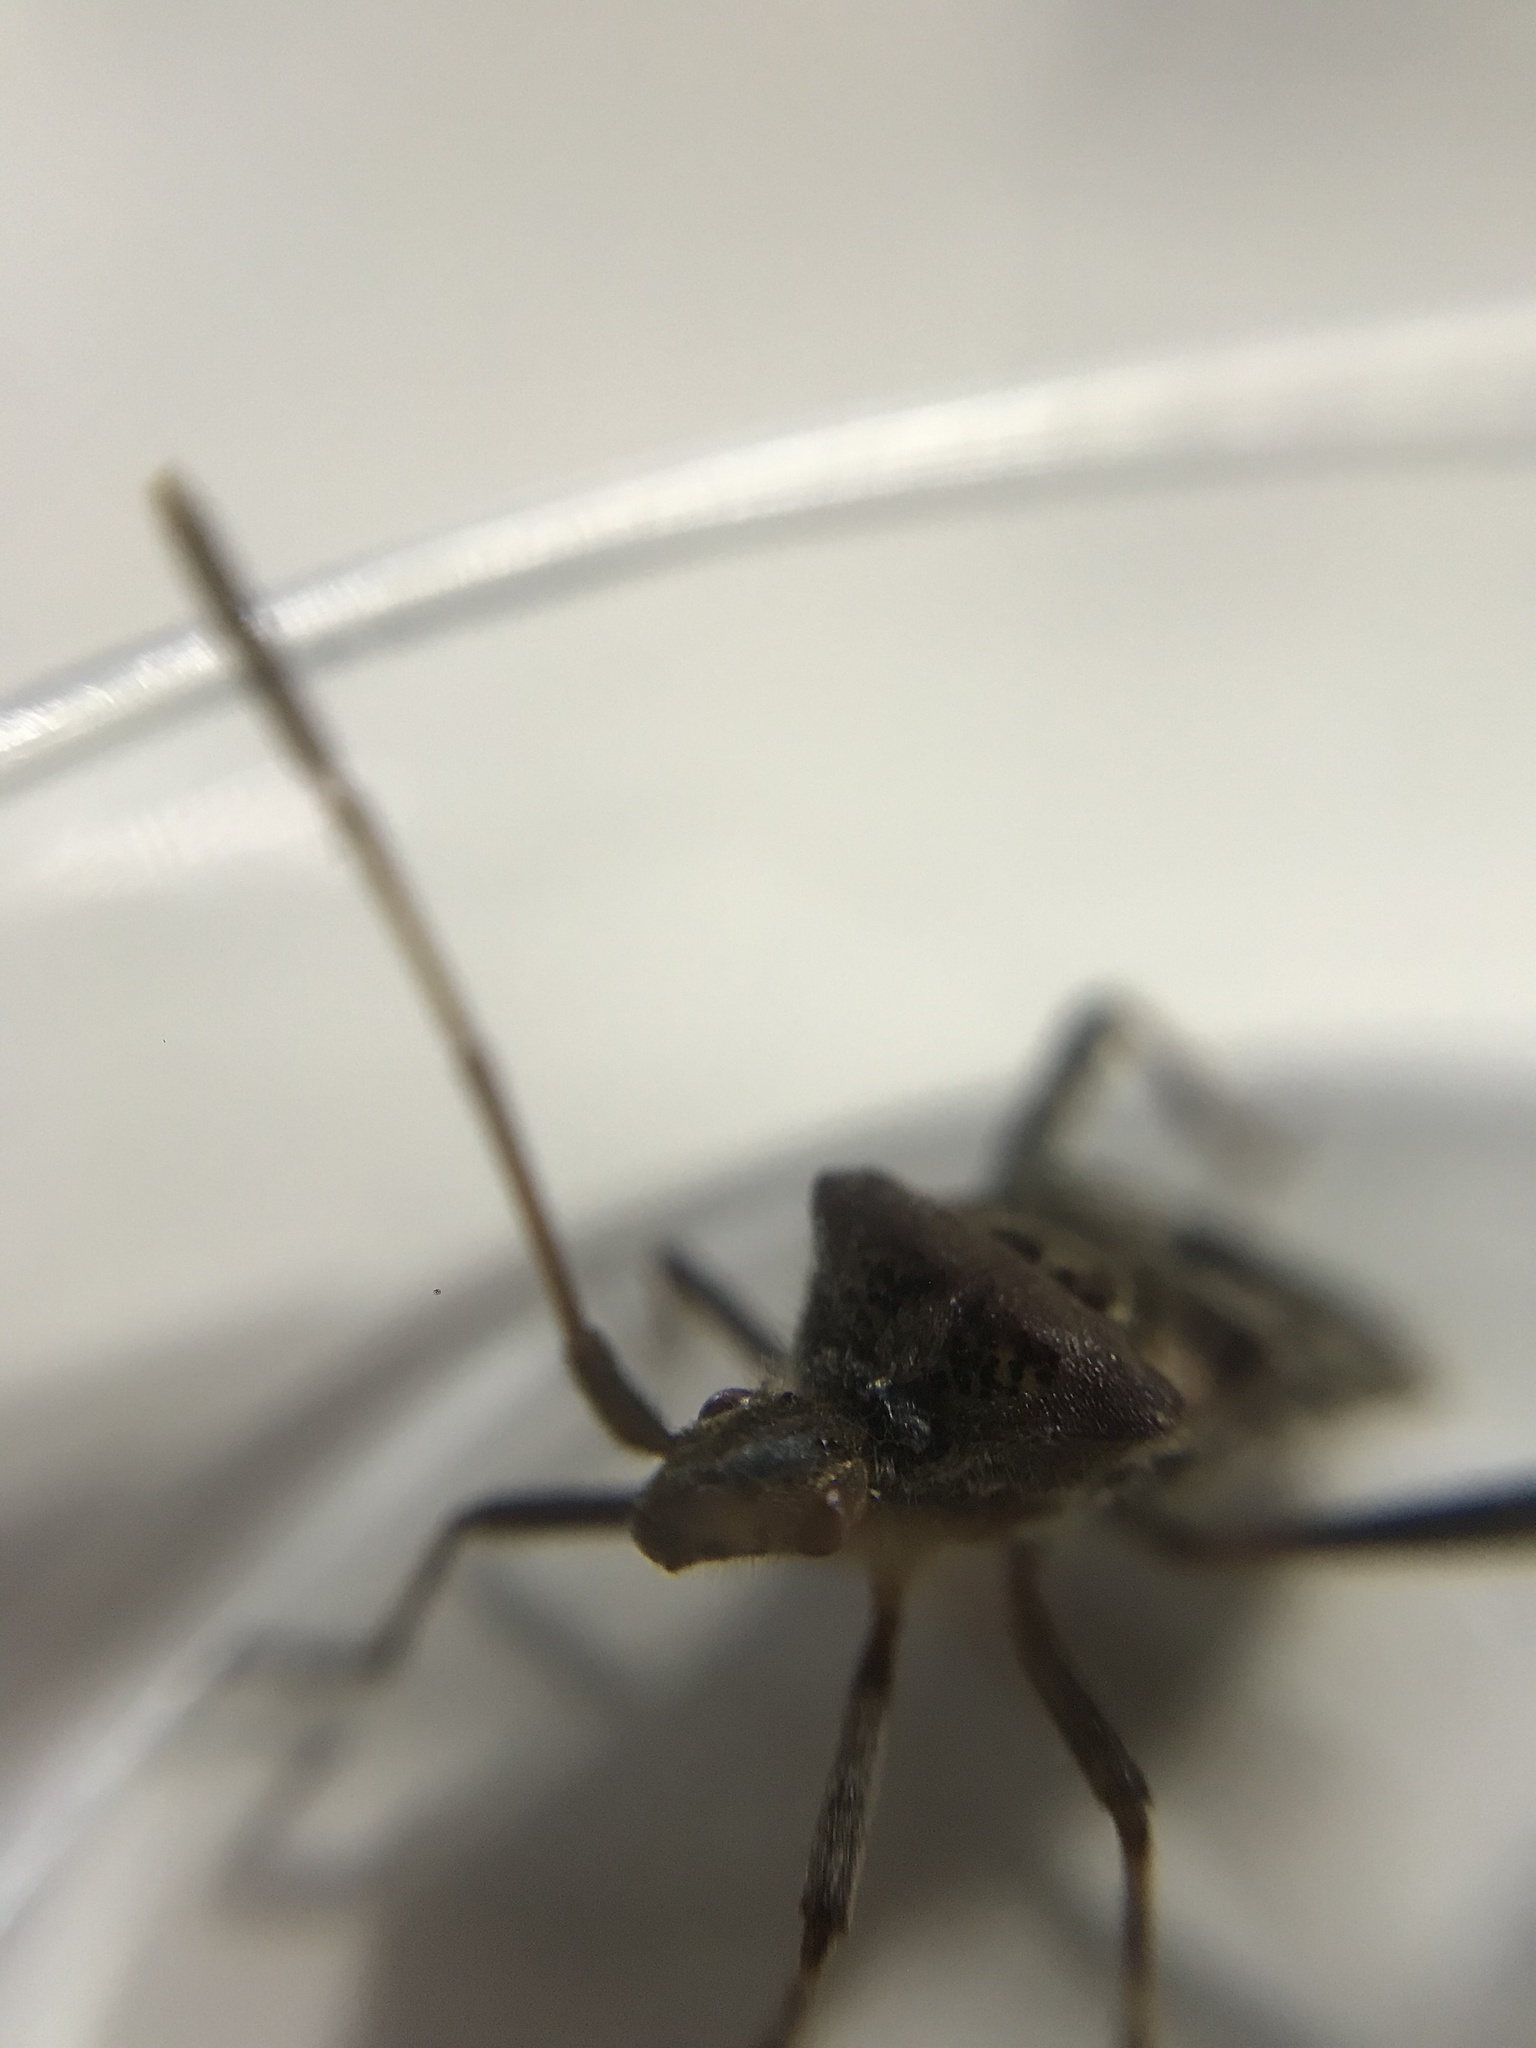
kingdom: Animalia
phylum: Arthropoda
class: Insecta
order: Hemiptera
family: Coreidae
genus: Leptoglossus
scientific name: Leptoglossus occidentalis
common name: Western conifer-seed bug
